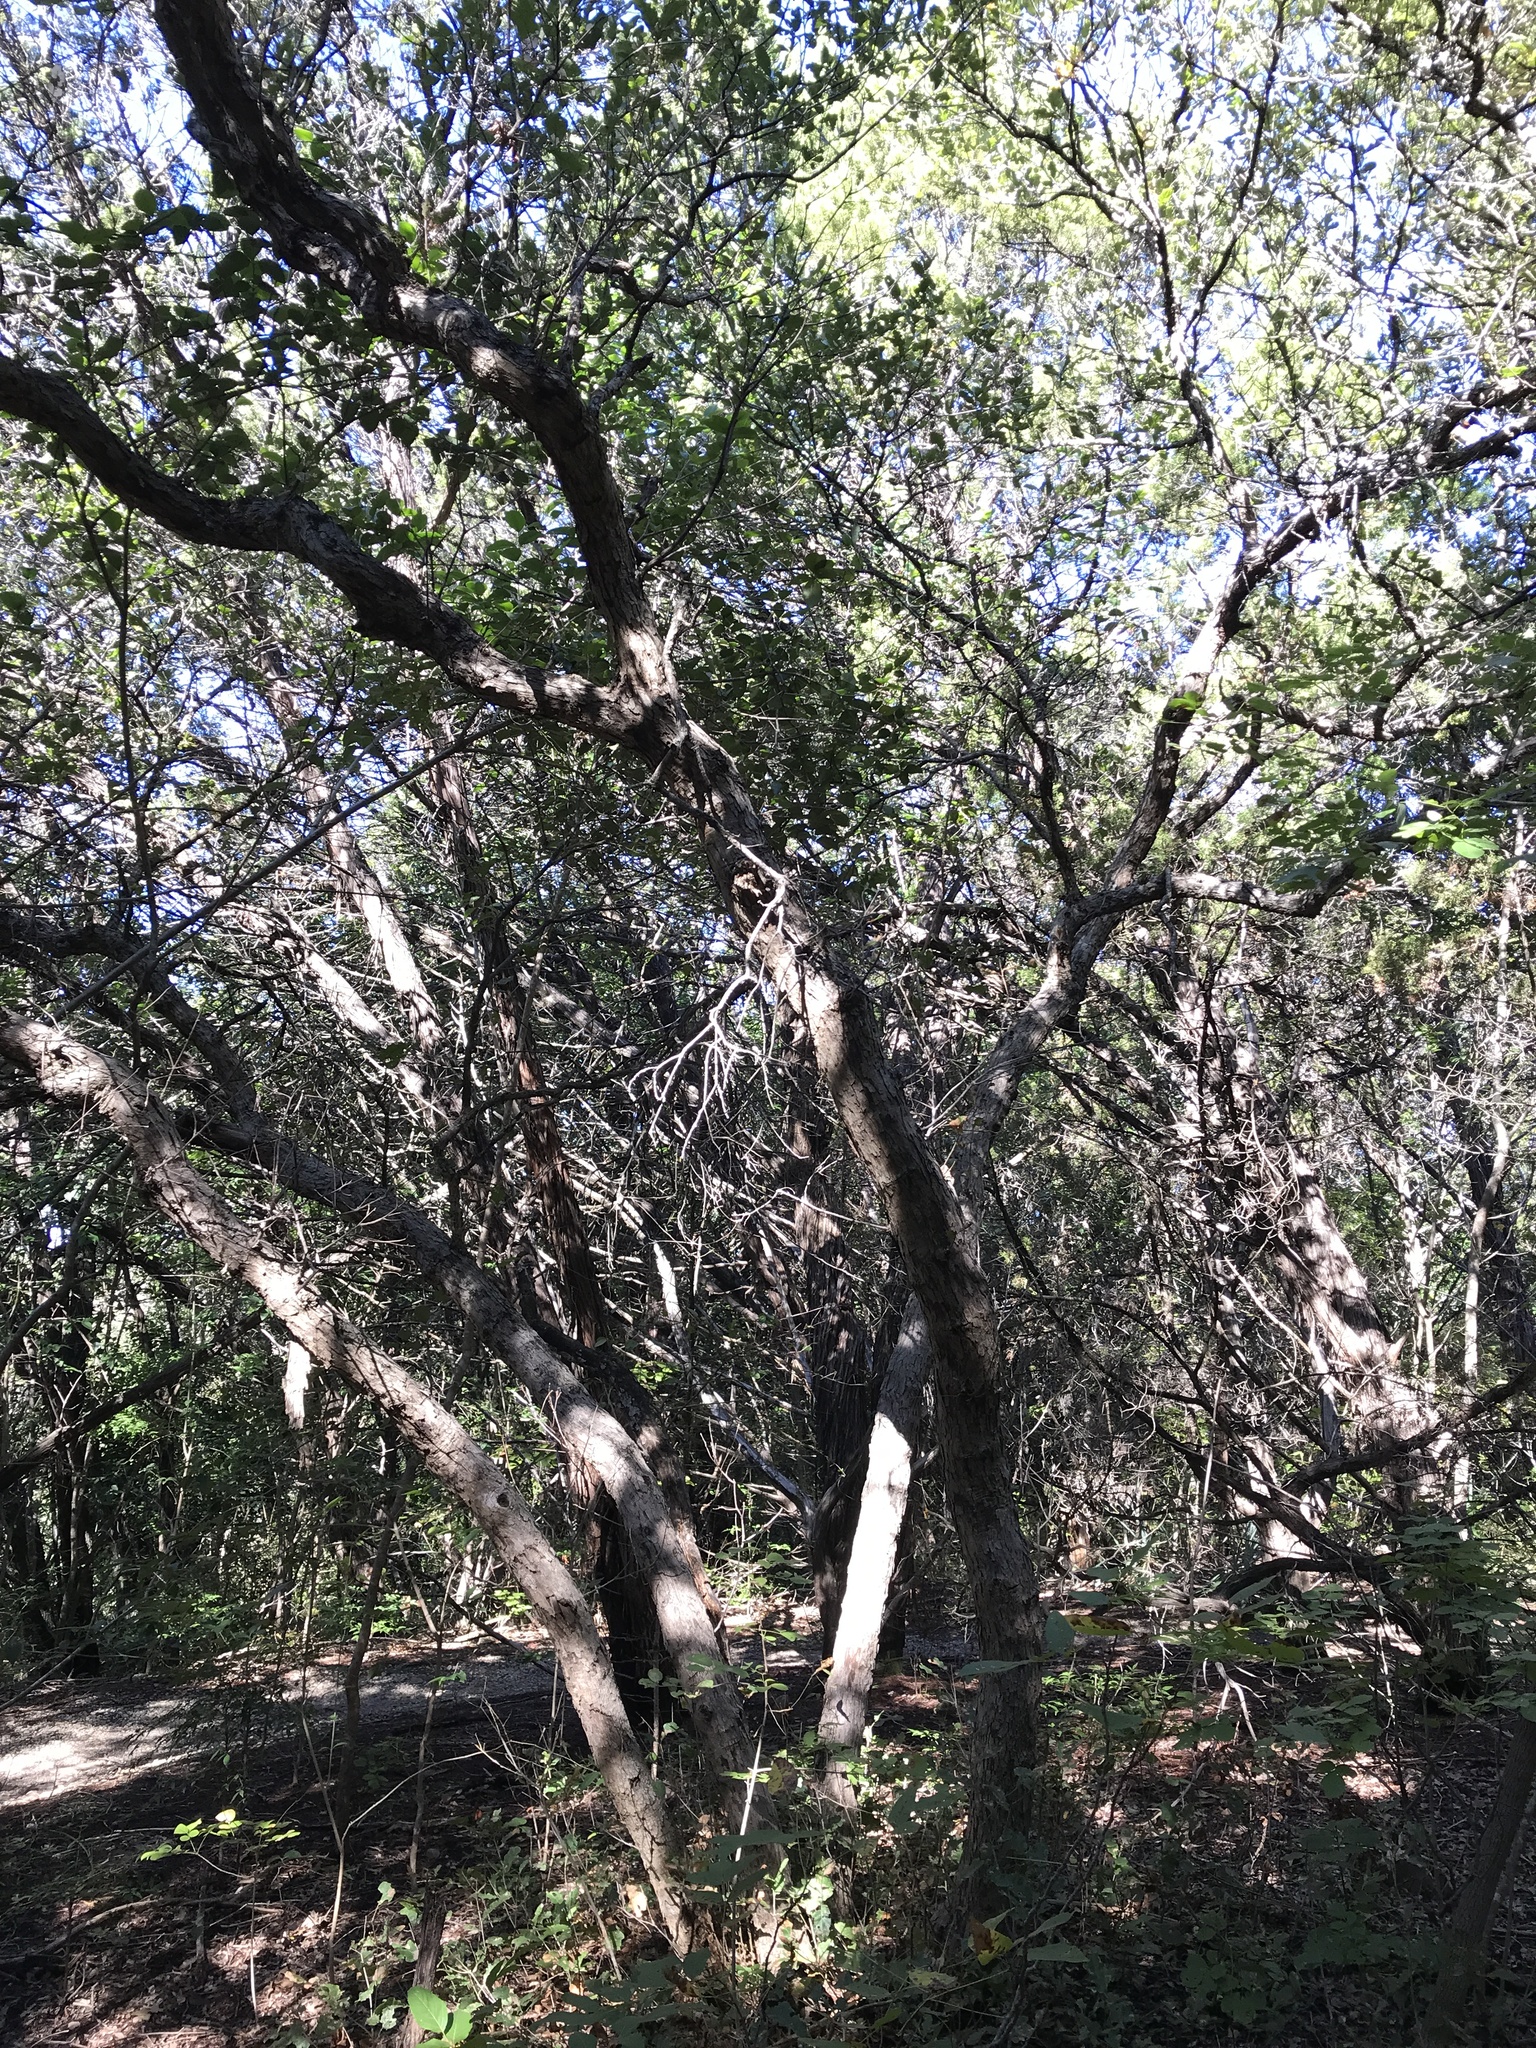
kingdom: Plantae
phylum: Tracheophyta
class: Magnoliopsida
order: Fagales
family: Fagaceae
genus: Quercus
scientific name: Quercus sinuata
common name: Durand oak
